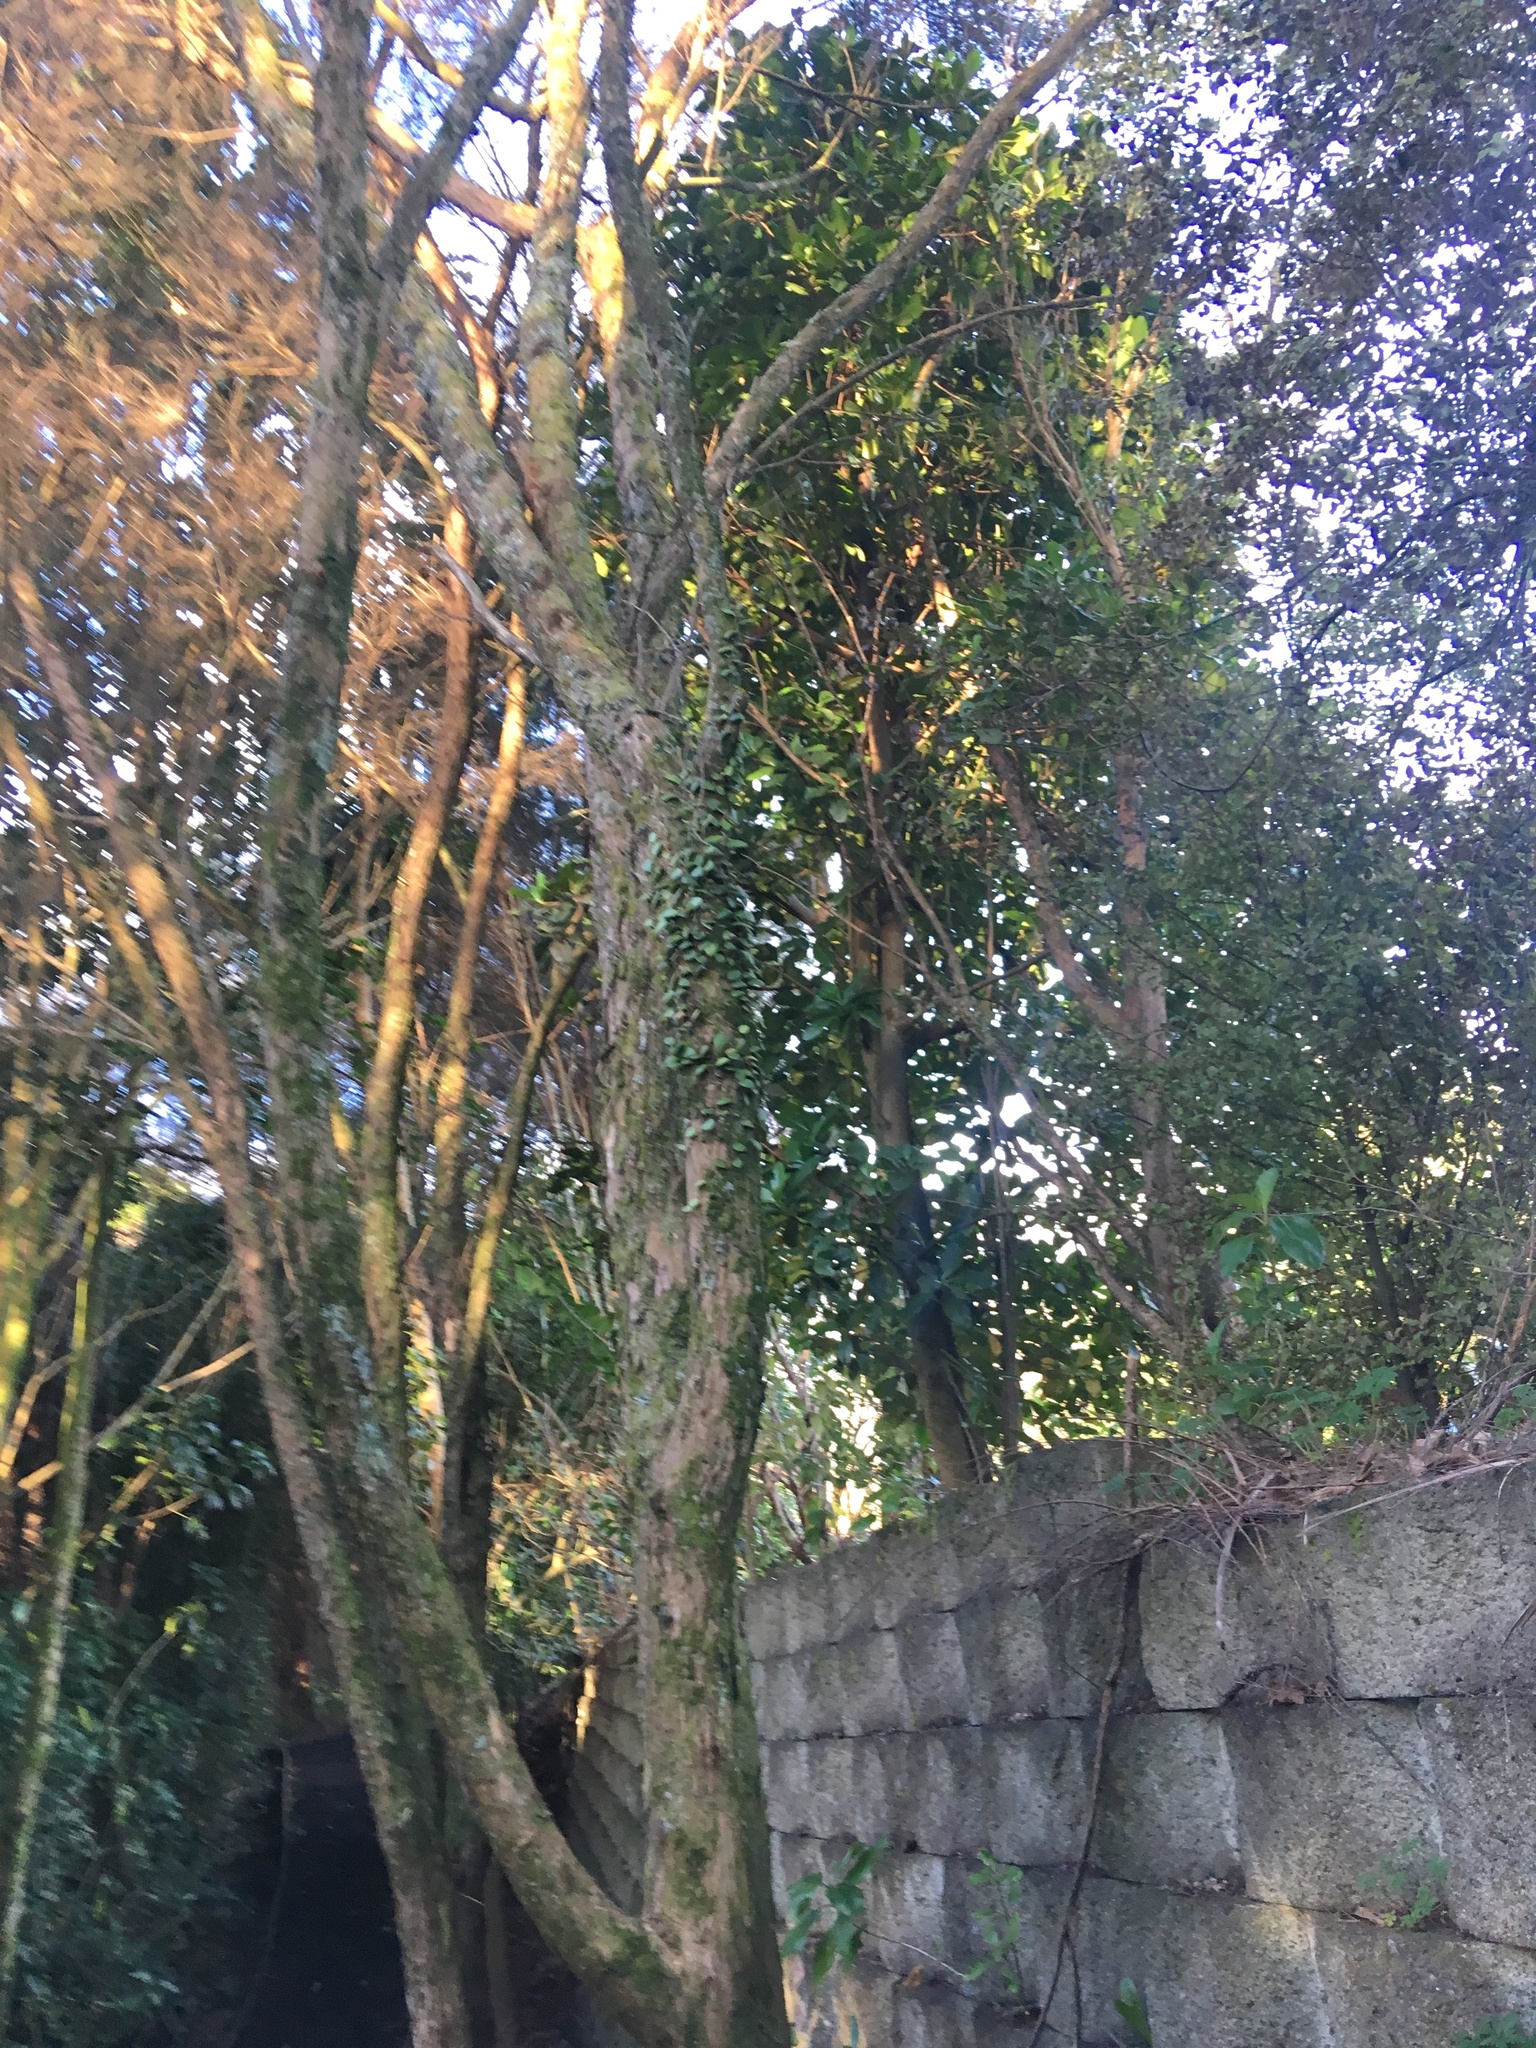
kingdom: Plantae
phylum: Tracheophyta
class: Polypodiopsida
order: Polypodiales
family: Polypodiaceae
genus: Pyrrosia
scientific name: Pyrrosia eleagnifolia
